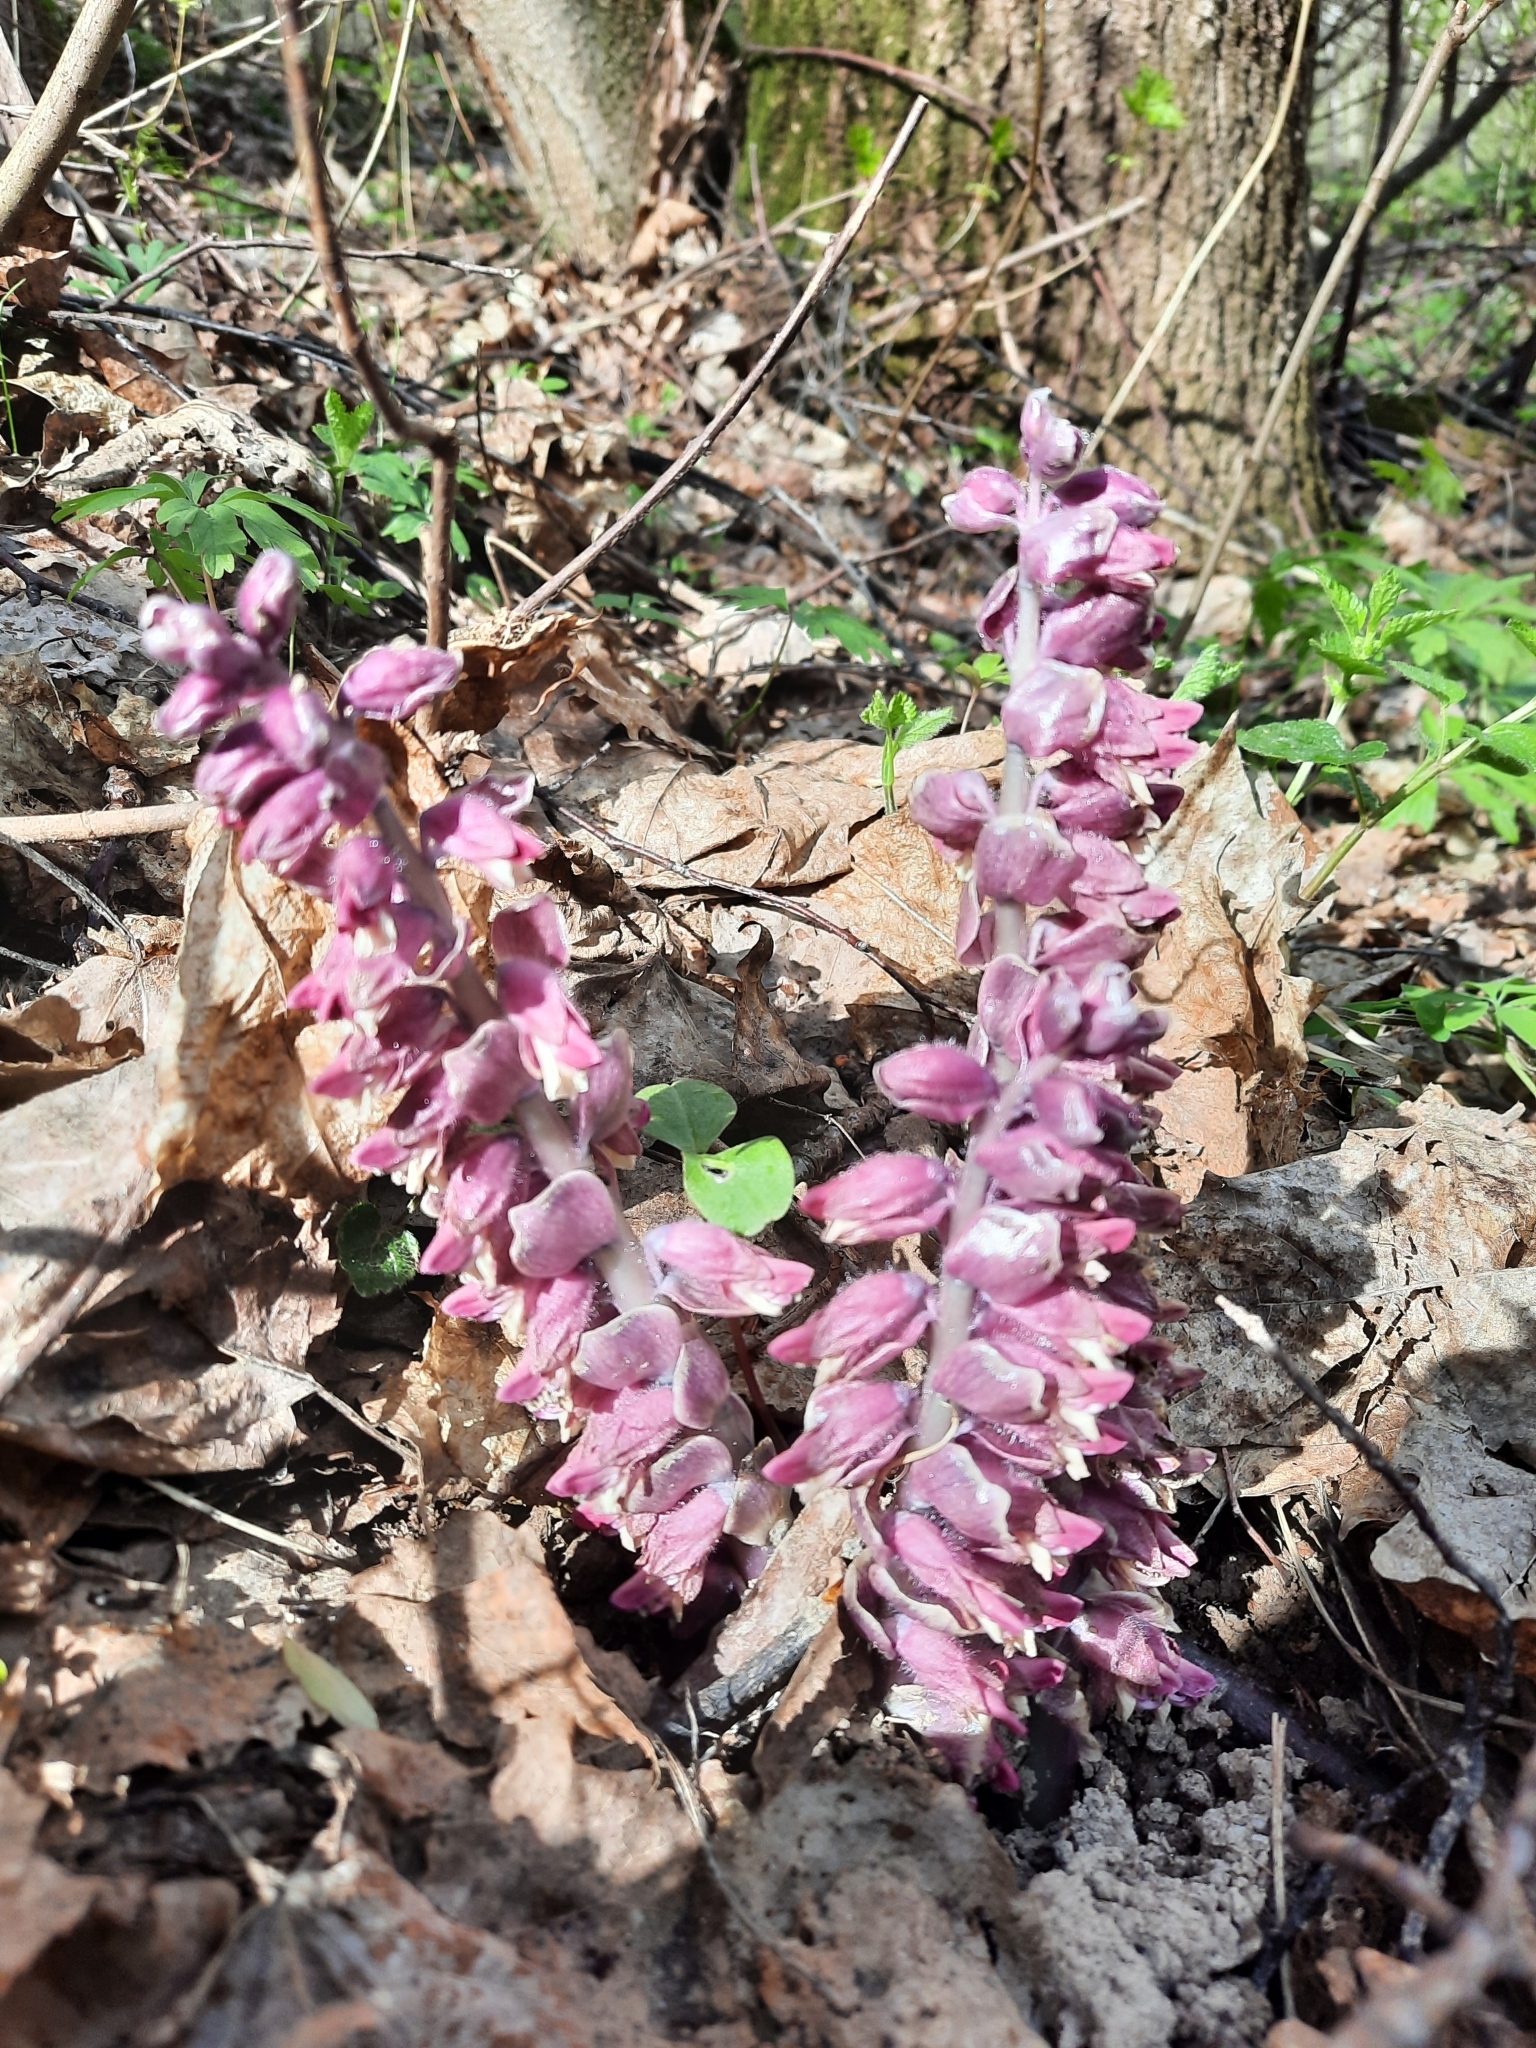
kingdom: Plantae
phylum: Tracheophyta
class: Magnoliopsida
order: Lamiales
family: Orobanchaceae
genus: Lathraea
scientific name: Lathraea squamaria
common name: Toothwort
